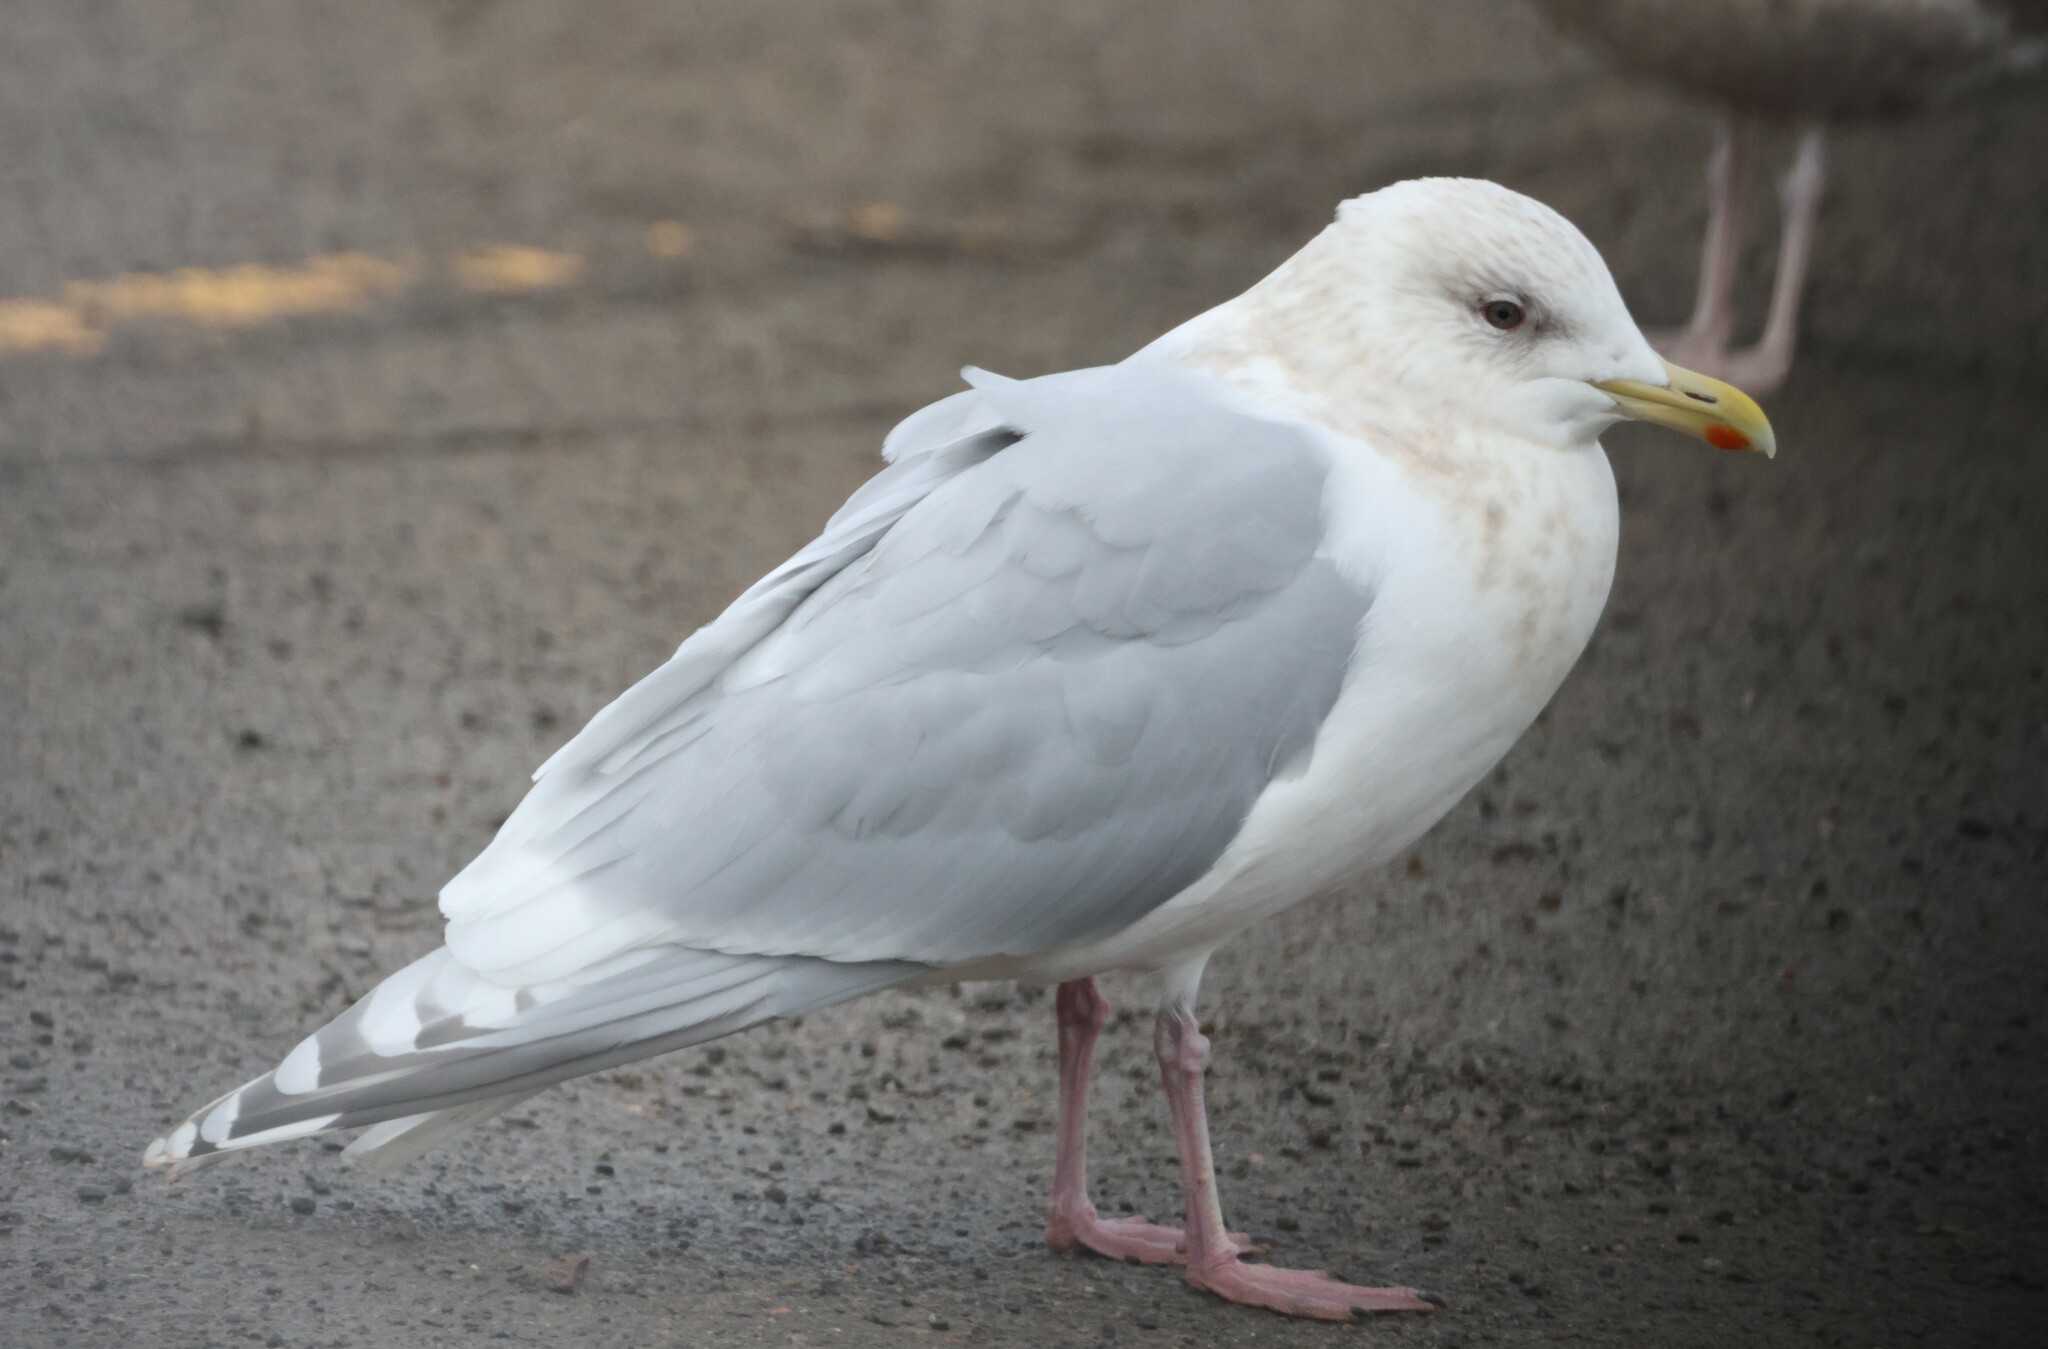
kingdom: Animalia
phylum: Chordata
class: Aves
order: Charadriiformes
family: Laridae
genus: Larus
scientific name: Larus glaucoides
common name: Iceland gull
